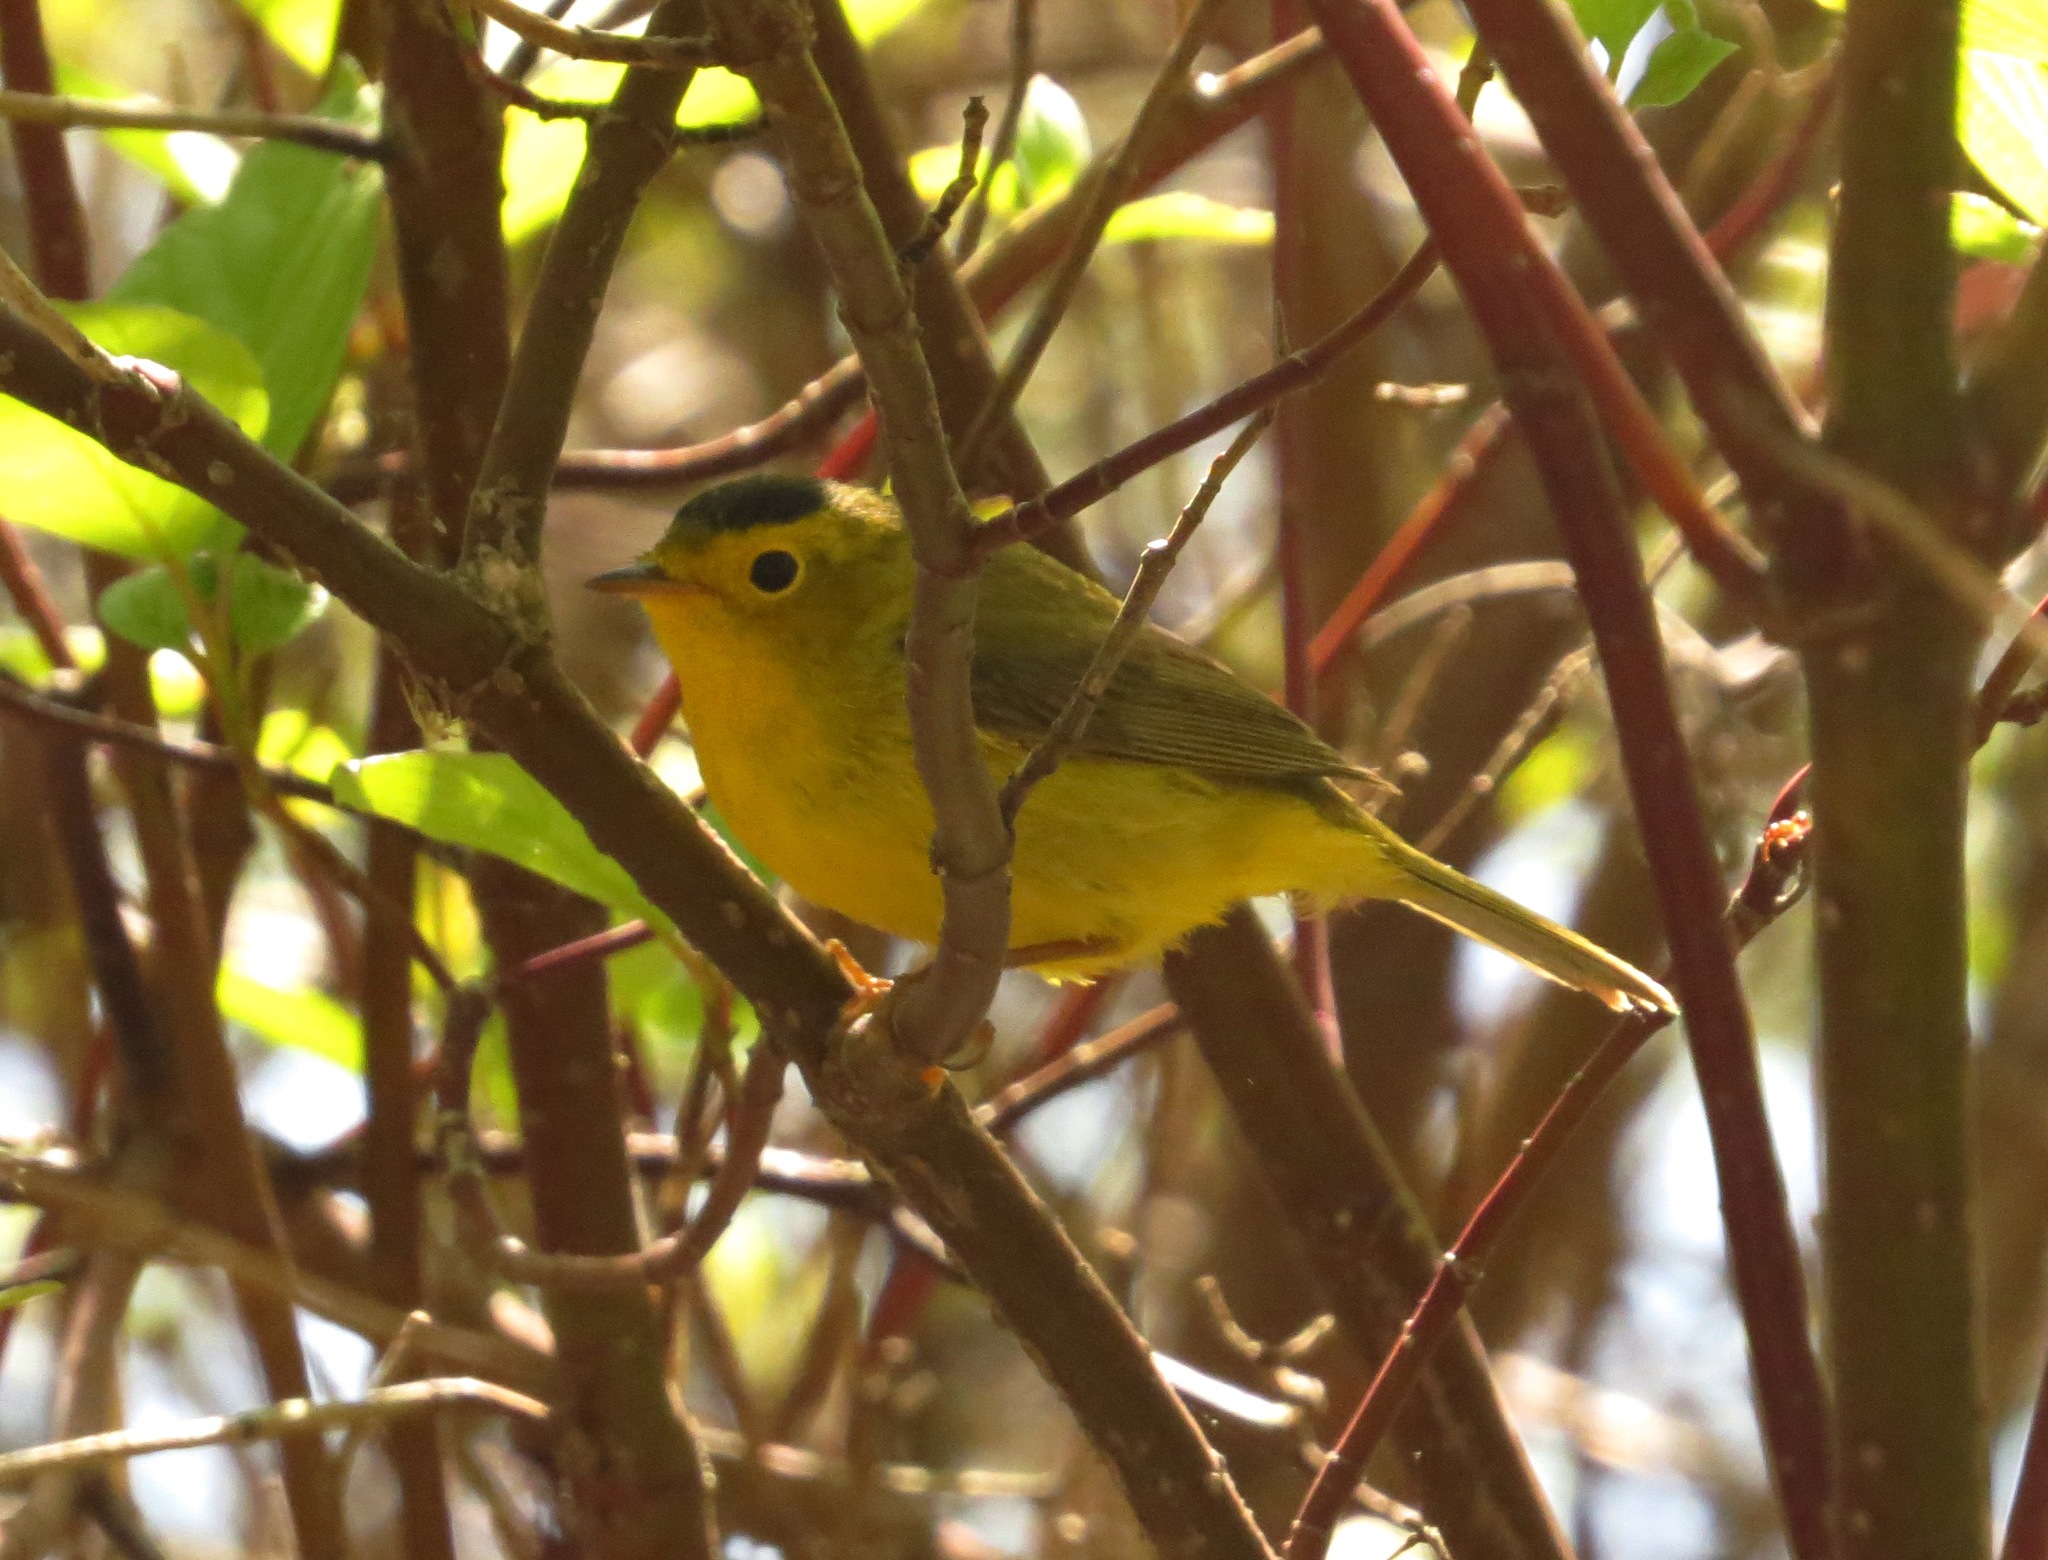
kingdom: Animalia
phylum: Chordata
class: Aves
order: Passeriformes
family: Parulidae
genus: Cardellina
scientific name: Cardellina pusilla
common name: Wilson's warbler
